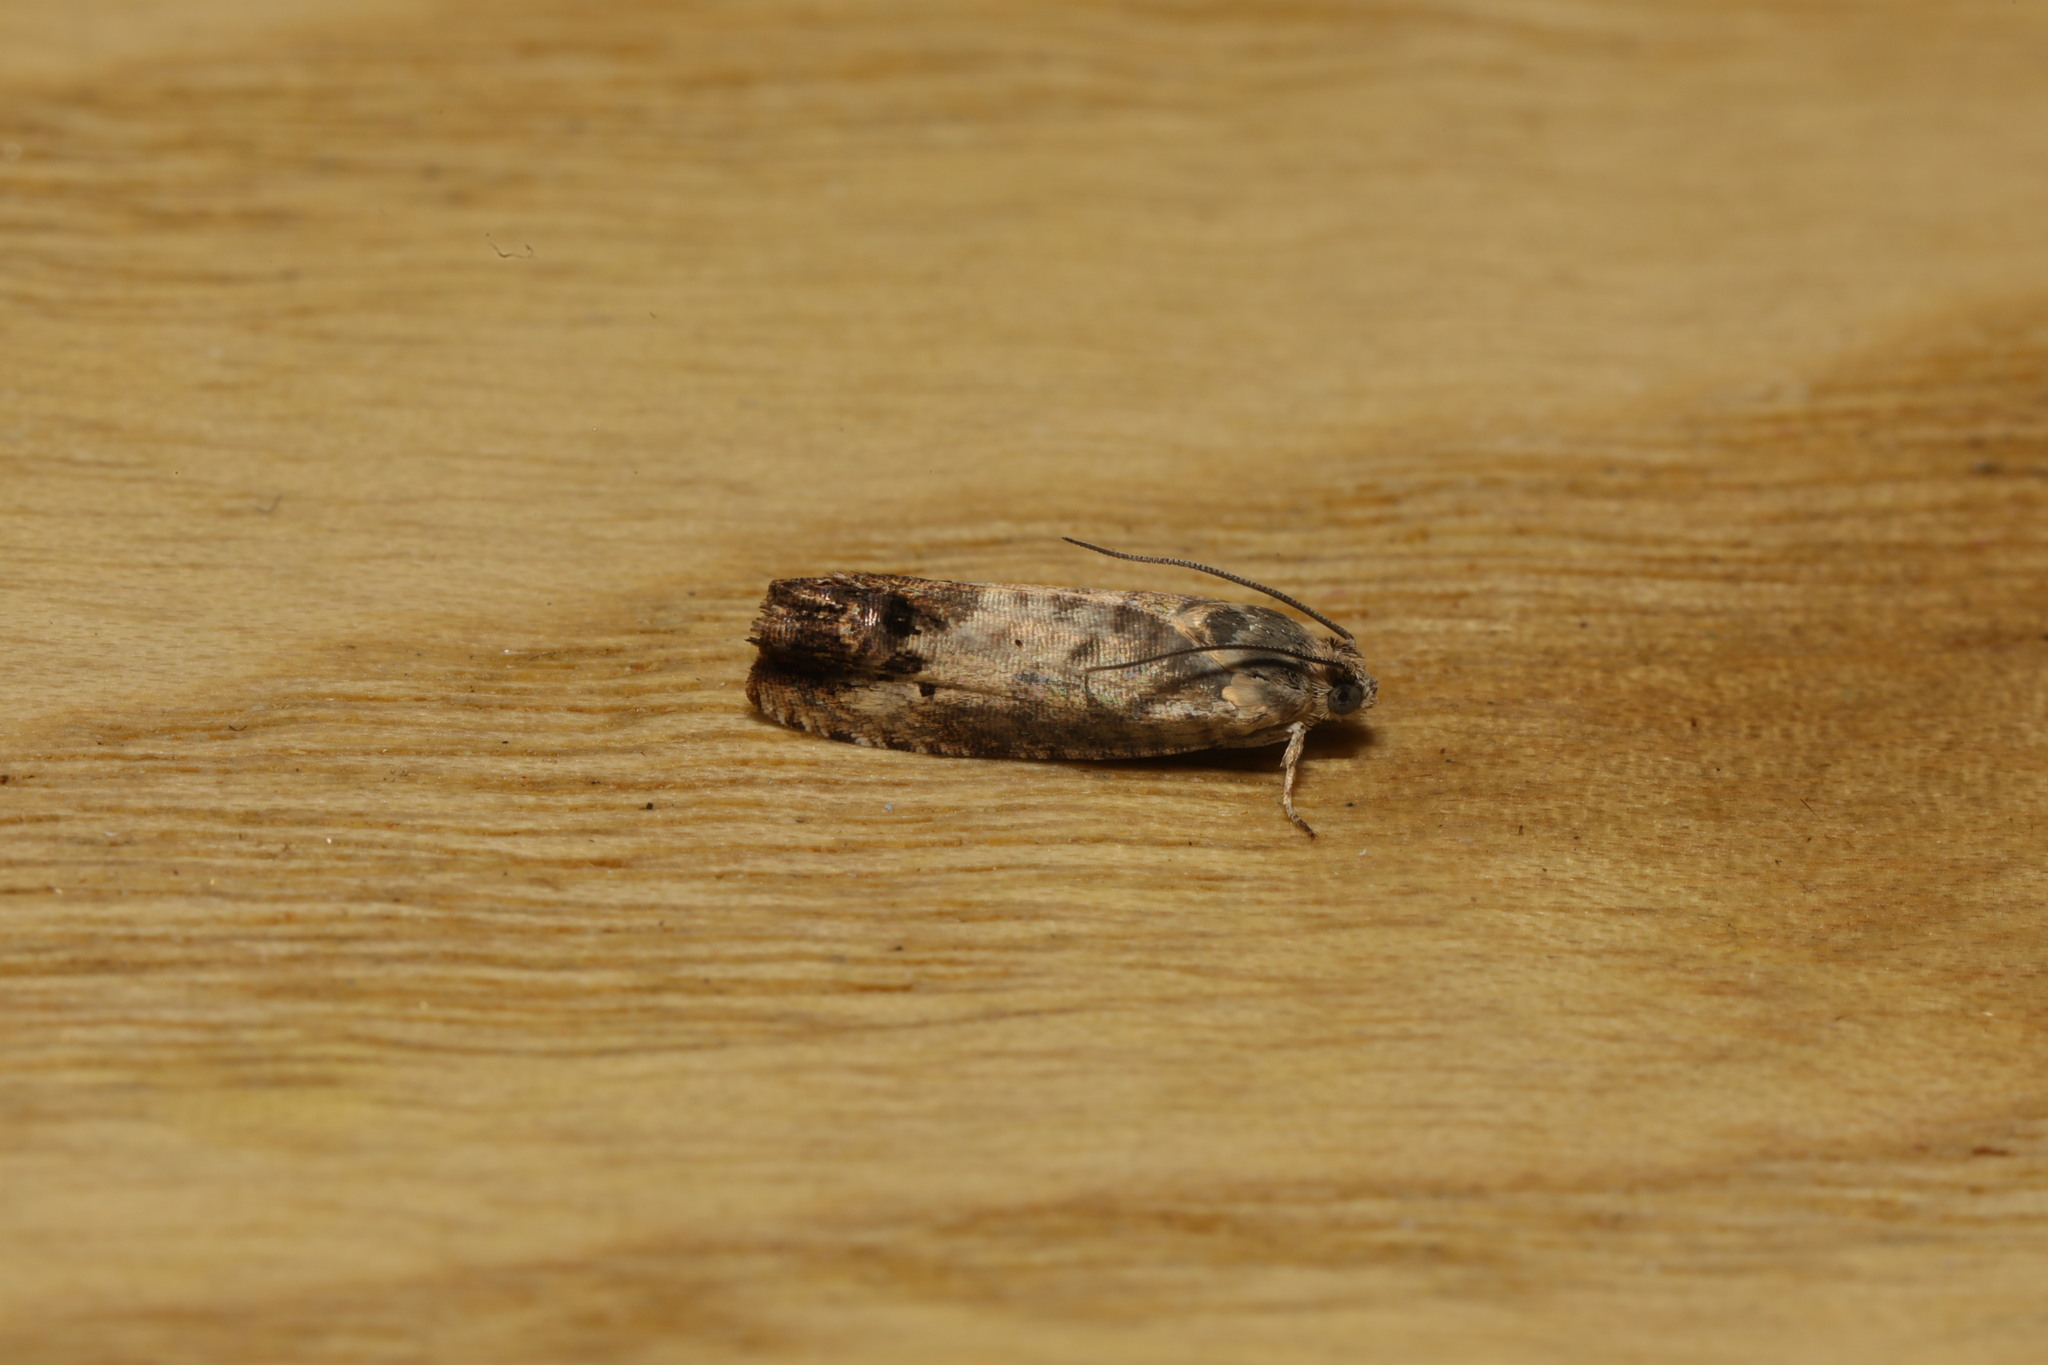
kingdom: Animalia
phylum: Arthropoda
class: Insecta
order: Lepidoptera
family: Tortricidae
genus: Pammene
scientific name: Pammene fasciana
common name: Acorn piercer
